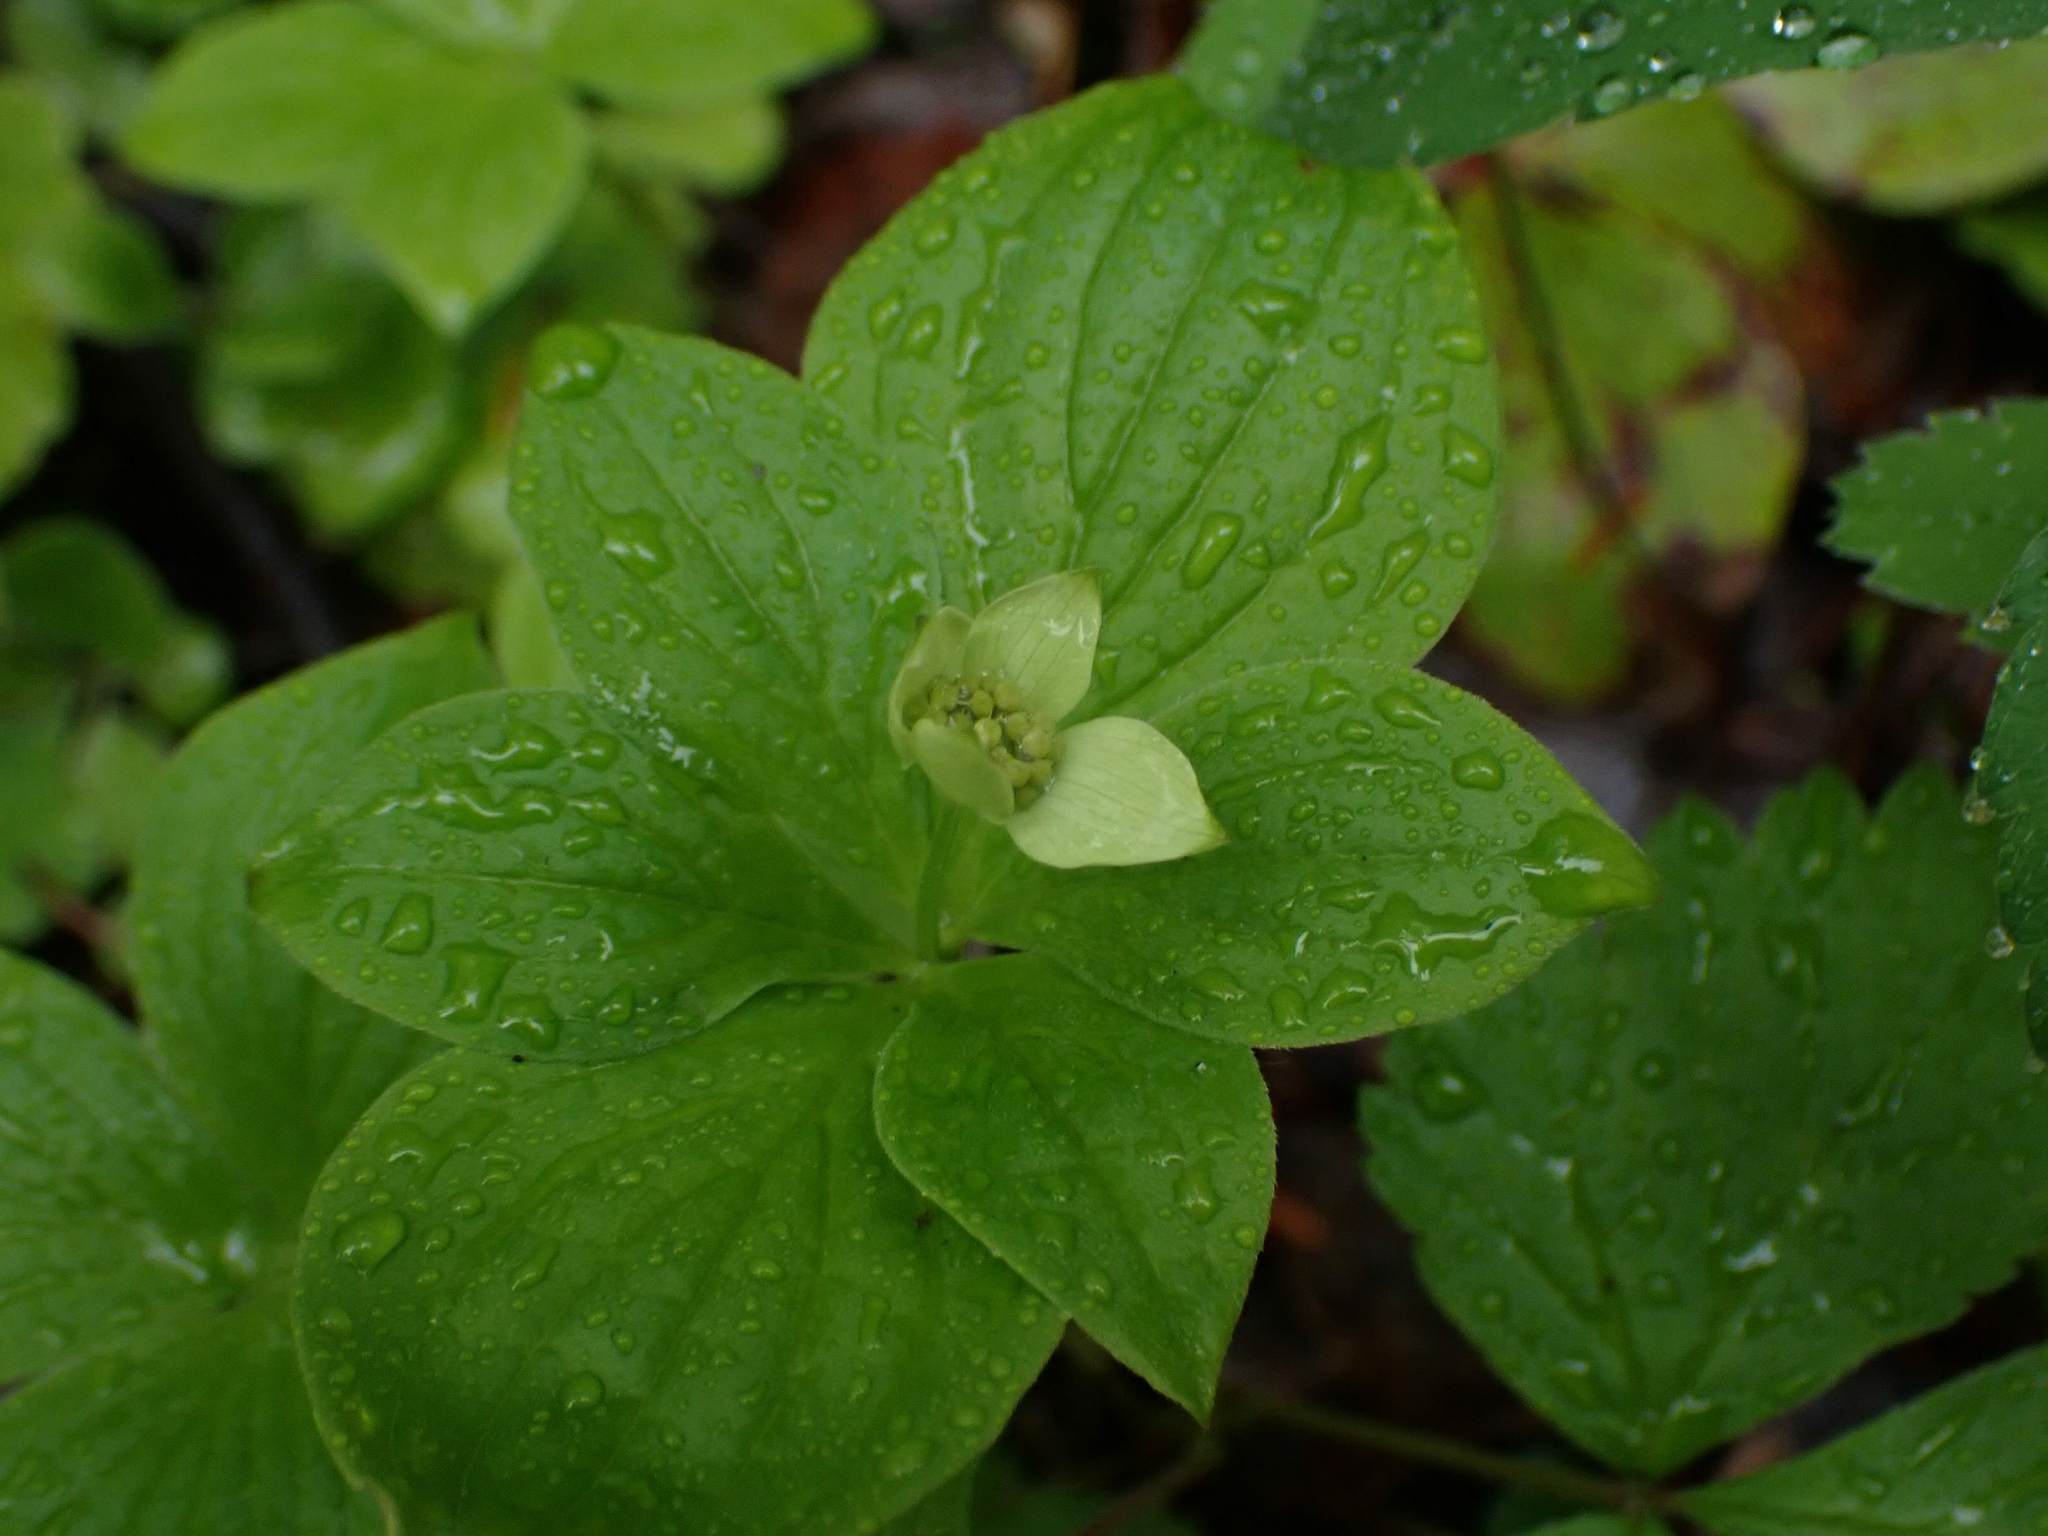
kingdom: Plantae
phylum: Tracheophyta
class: Magnoliopsida
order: Cornales
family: Cornaceae
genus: Cornus
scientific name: Cornus canadensis
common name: Creeping dogwood
